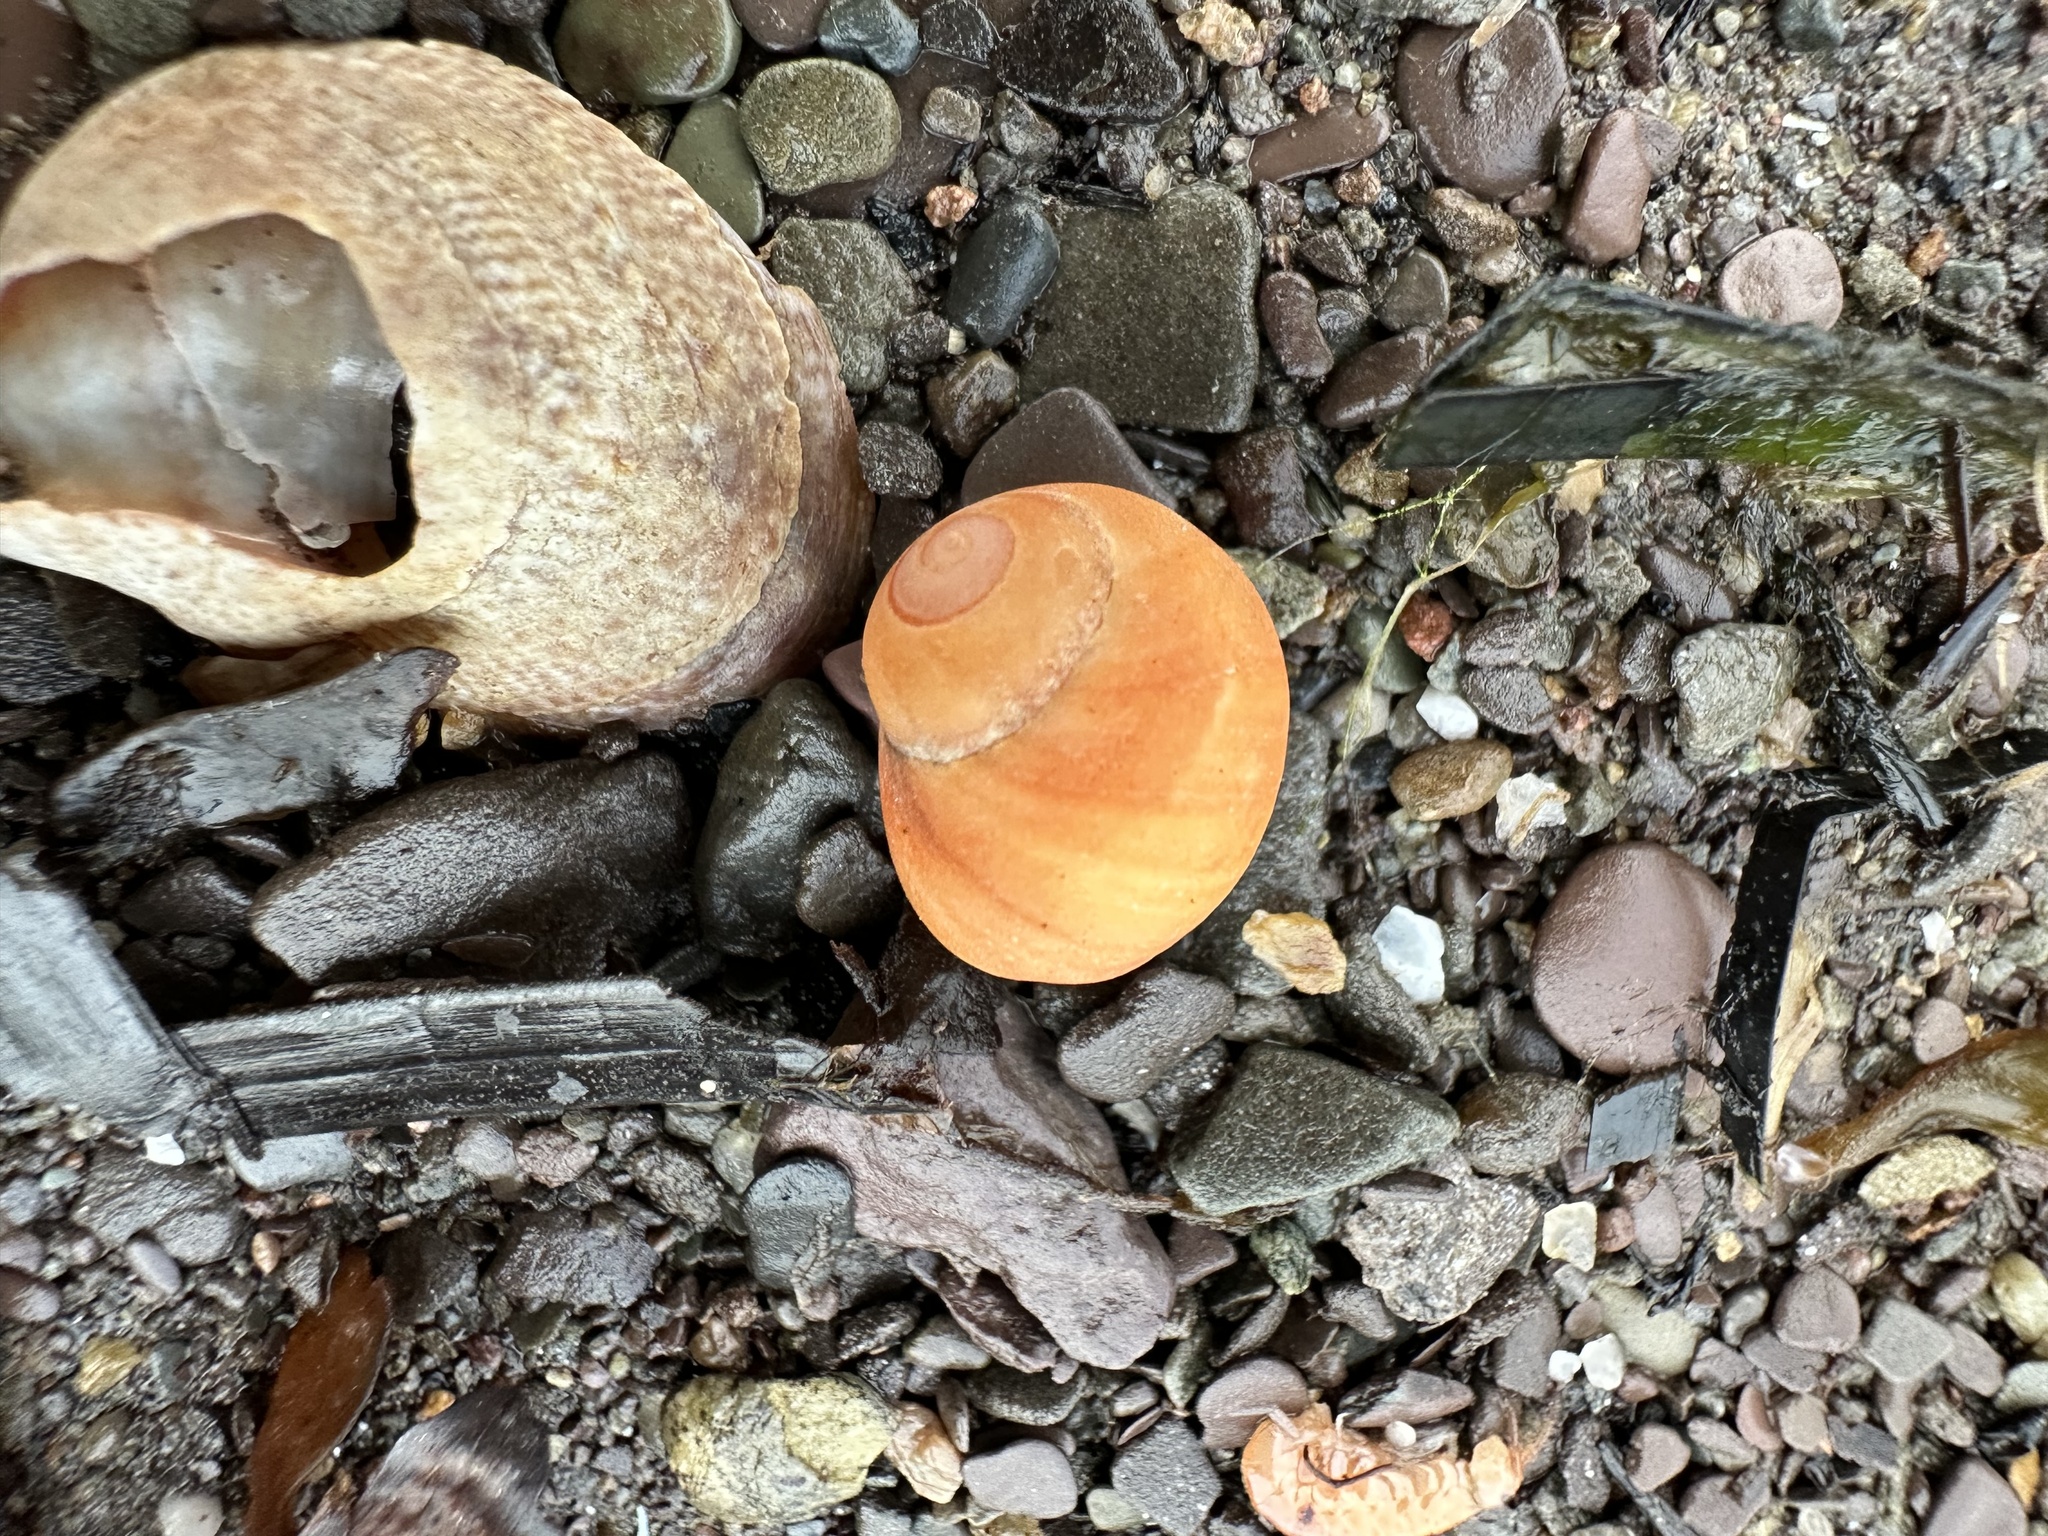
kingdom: Animalia
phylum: Mollusca
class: Gastropoda
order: Littorinimorpha
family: Littorinidae
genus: Littorina
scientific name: Littorina obtusata
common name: Flat periwinkle
